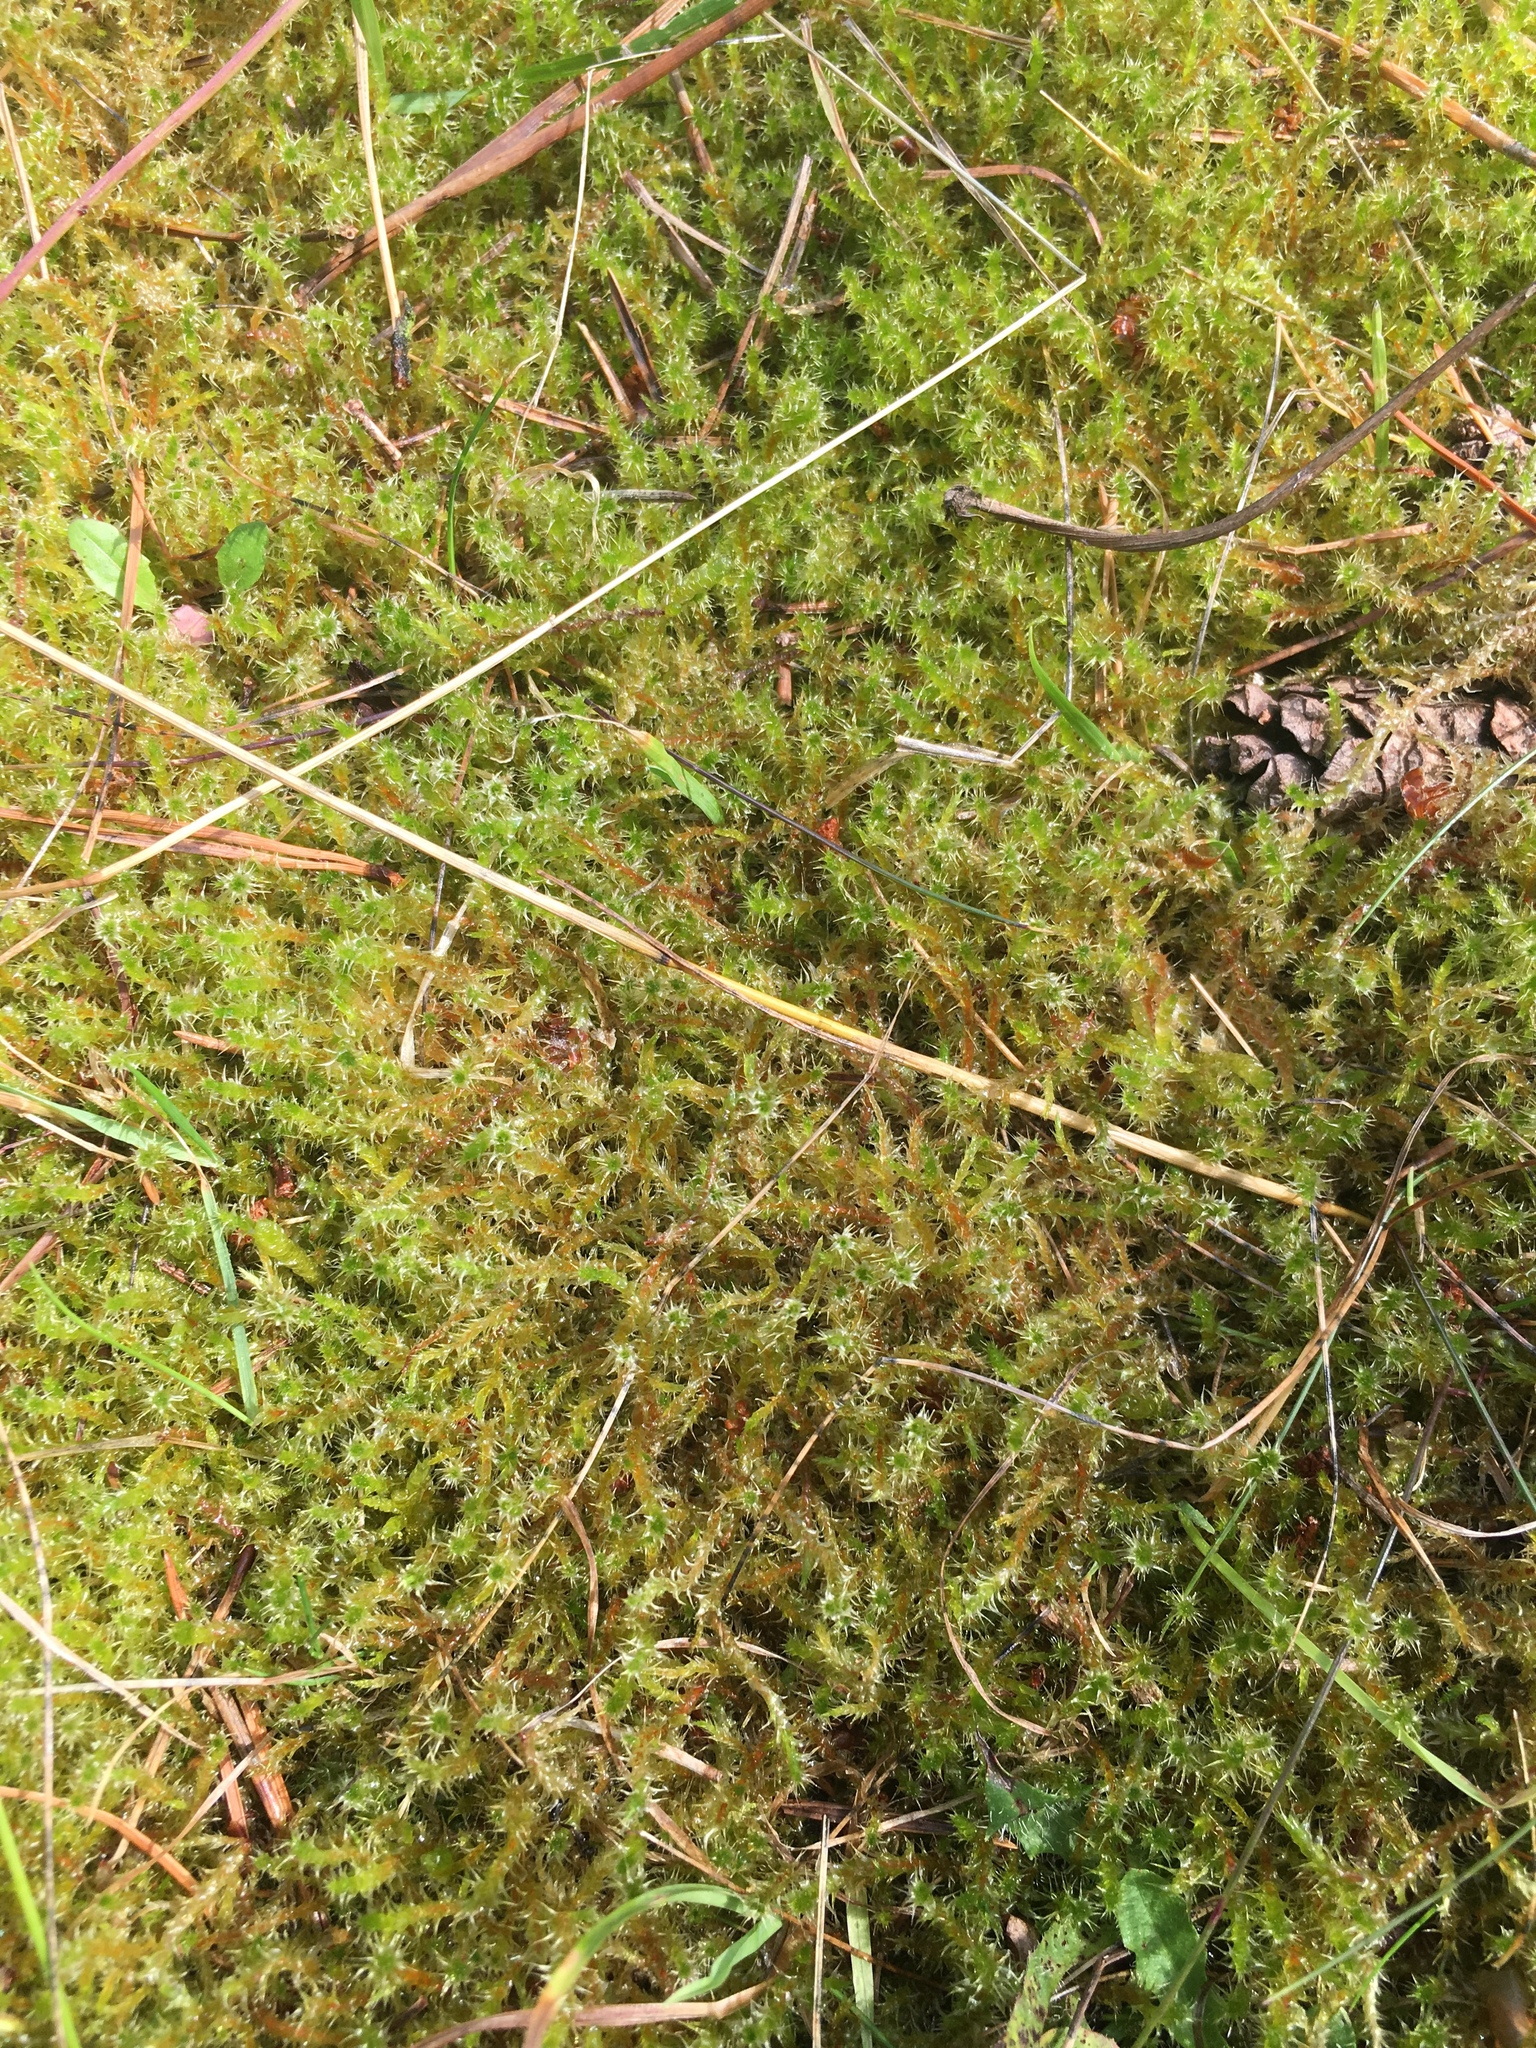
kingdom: Plantae
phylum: Bryophyta
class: Bryopsida
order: Hypnales
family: Hylocomiaceae
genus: Rhytidiadelphus
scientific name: Rhytidiadelphus squarrosus
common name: Springy turf-moss
